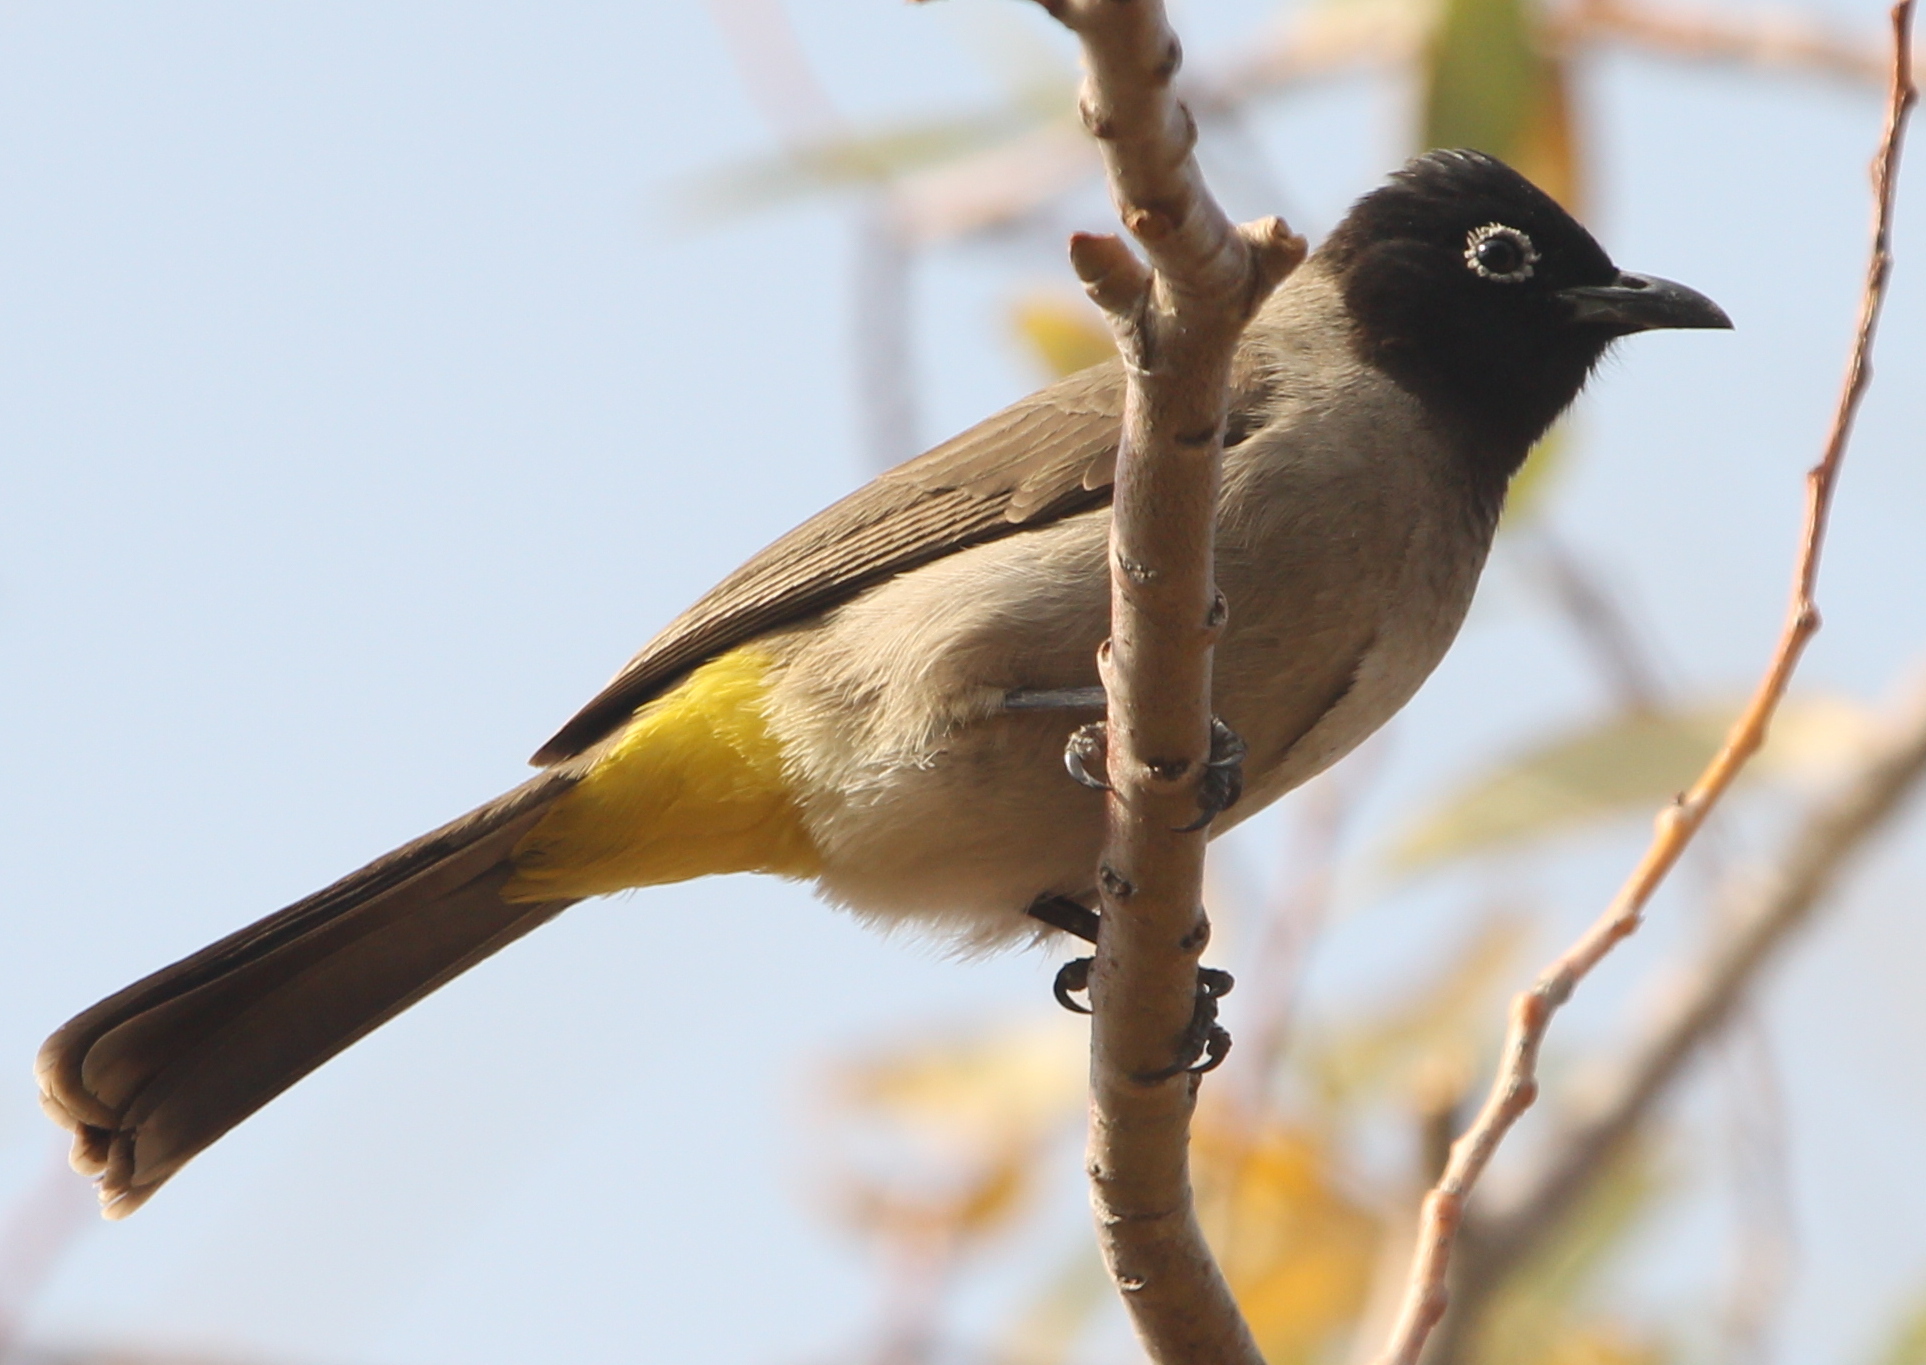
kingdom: Animalia
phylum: Chordata
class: Aves
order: Passeriformes
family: Pycnonotidae
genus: Pycnonotus
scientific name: Pycnonotus xanthopygos
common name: White-spectacled bulbul
